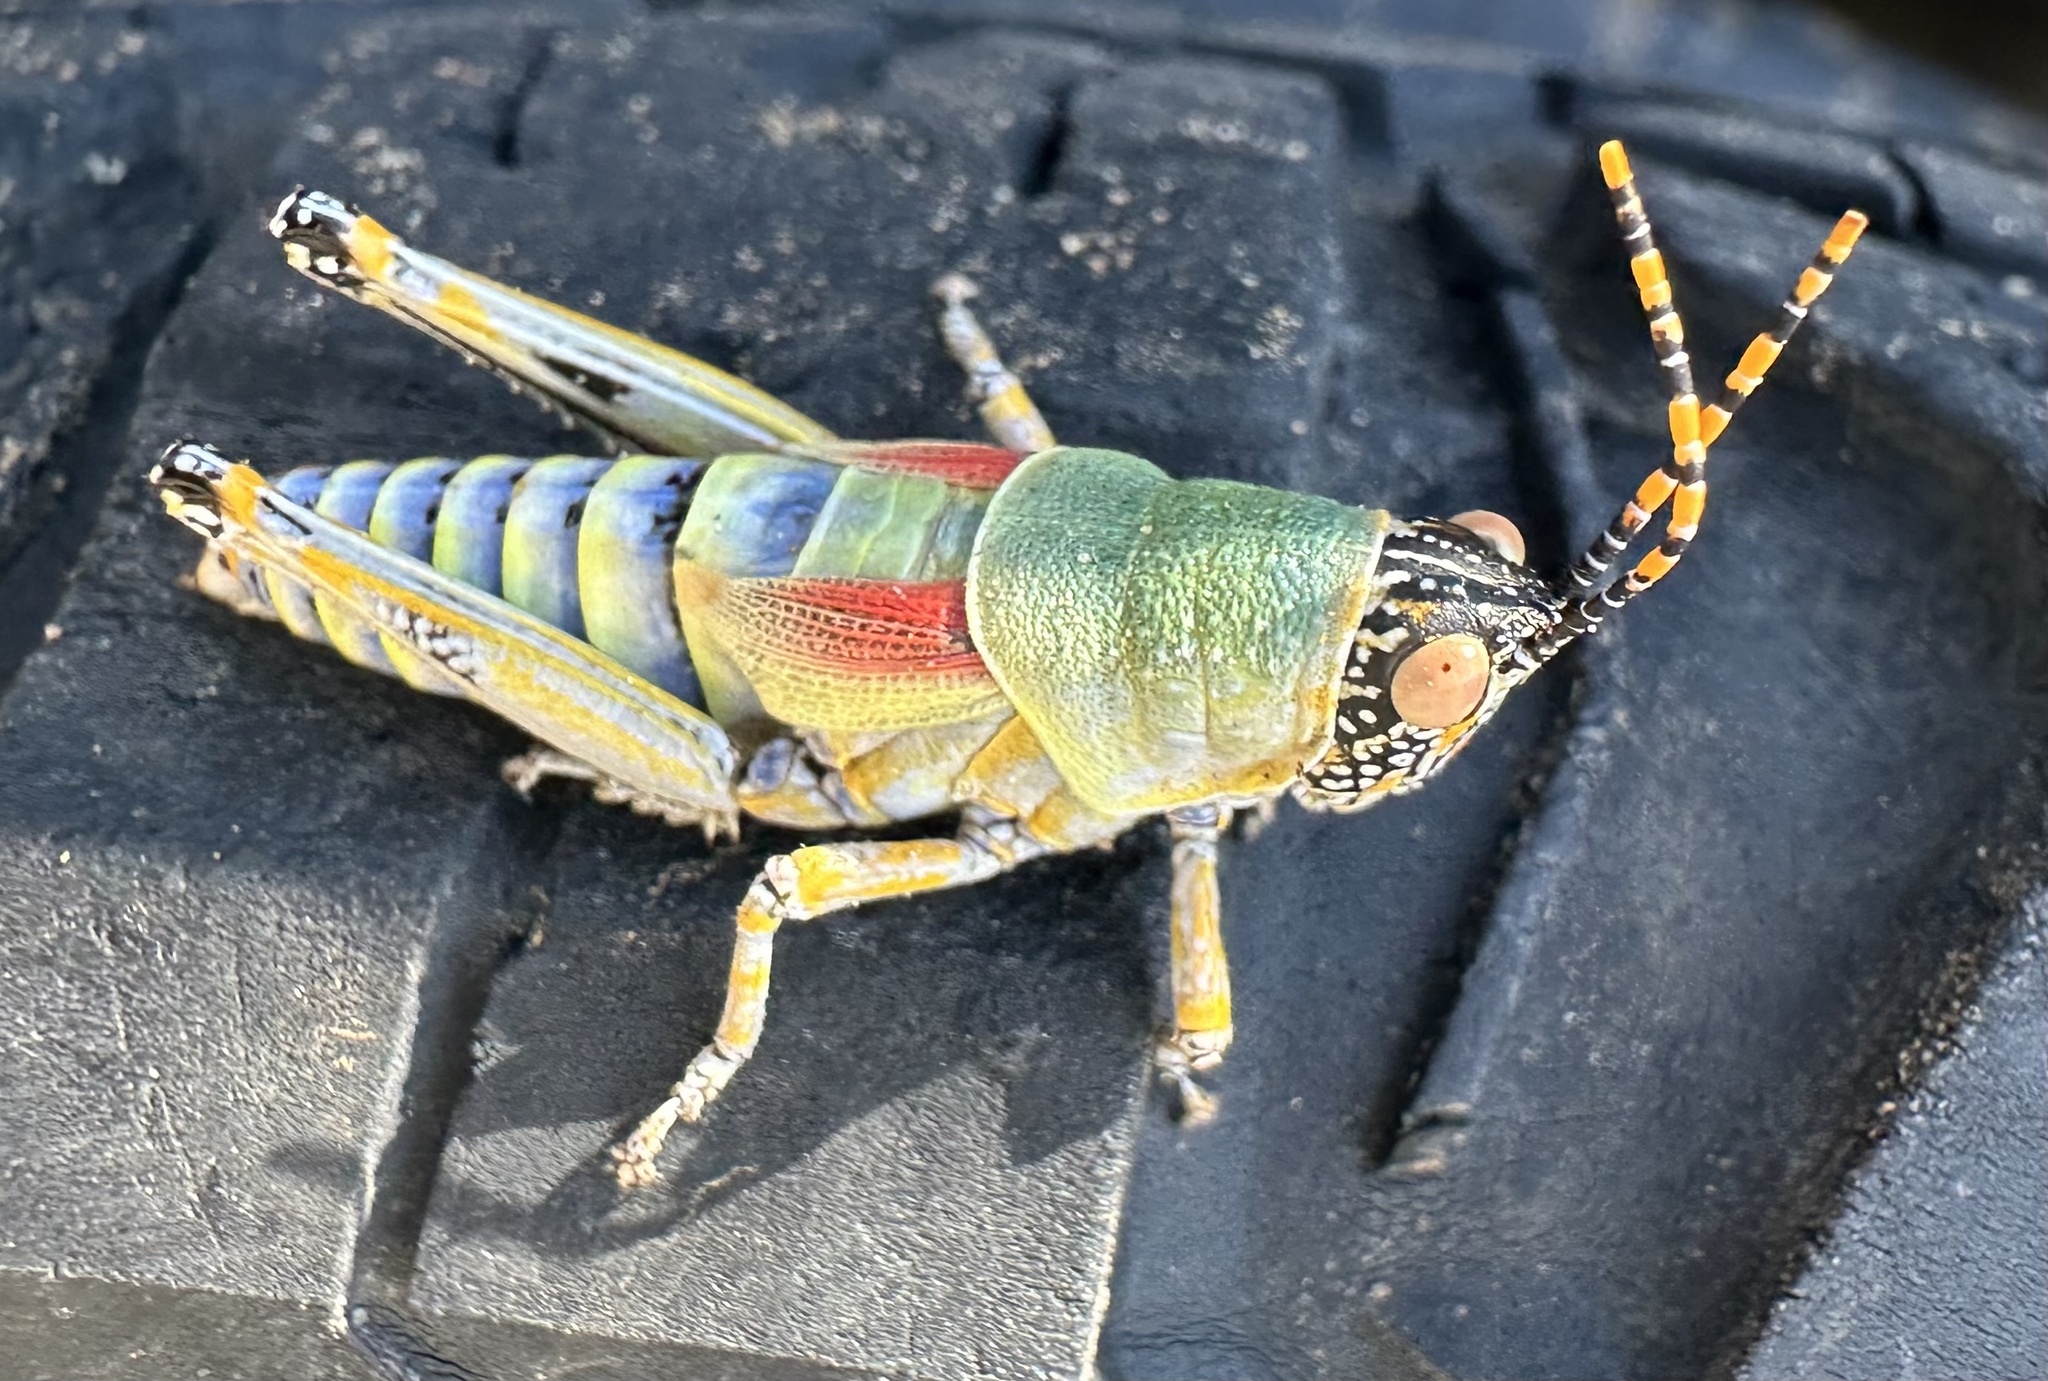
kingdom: Animalia
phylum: Arthropoda
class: Insecta
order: Orthoptera
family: Pyrgomorphidae
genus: Zonocerus
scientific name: Zonocerus elegans
